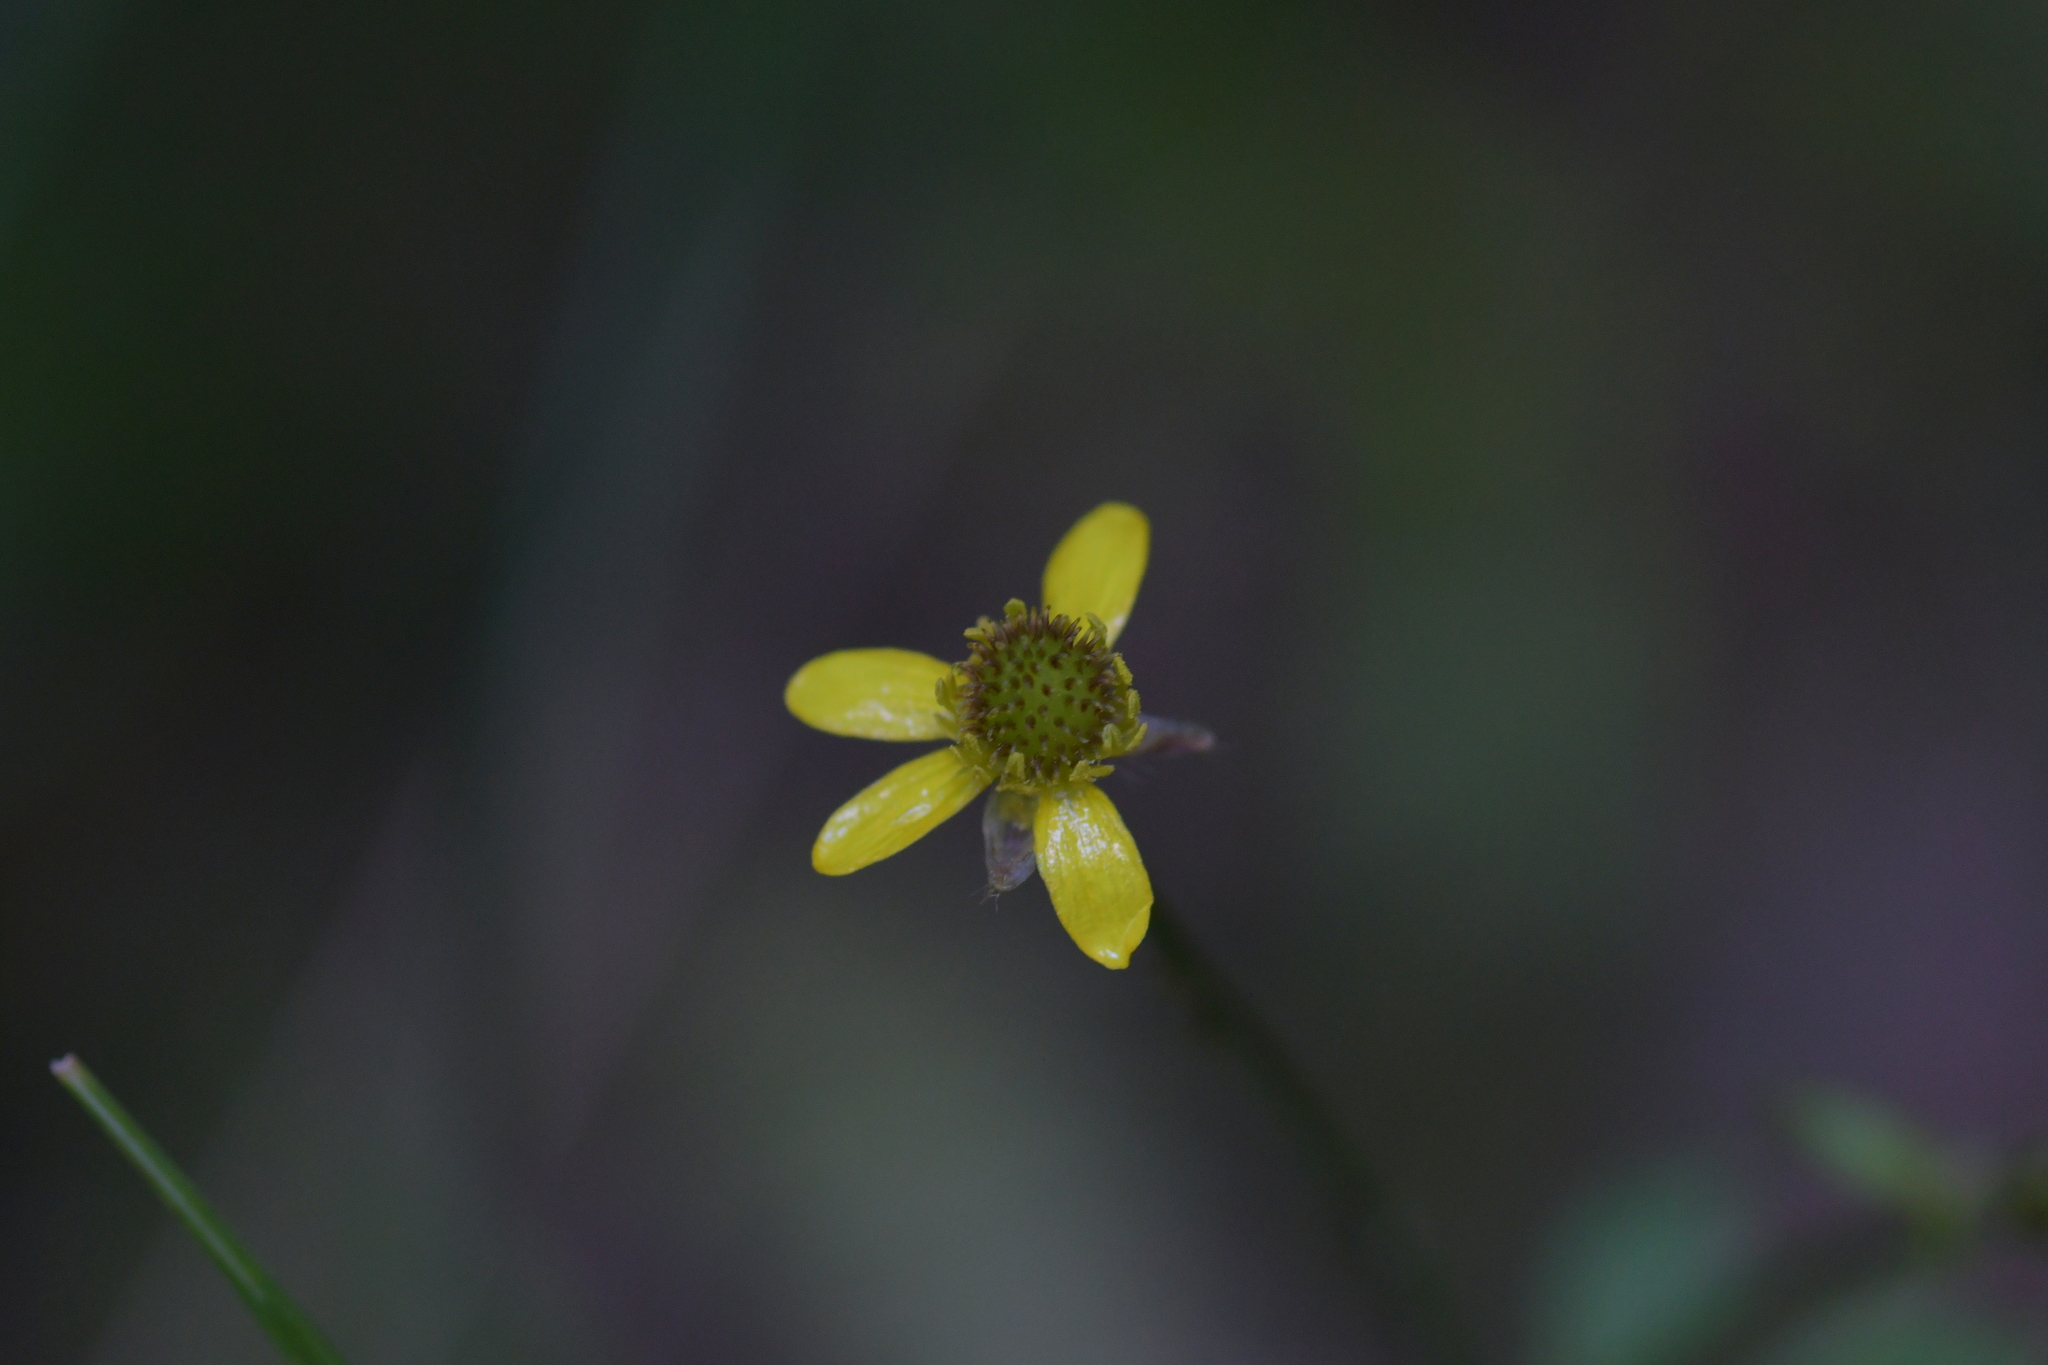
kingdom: Plantae
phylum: Tracheophyta
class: Magnoliopsida
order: Ranunculales
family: Ranunculaceae
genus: Ranunculus
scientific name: Ranunculus reflexus
